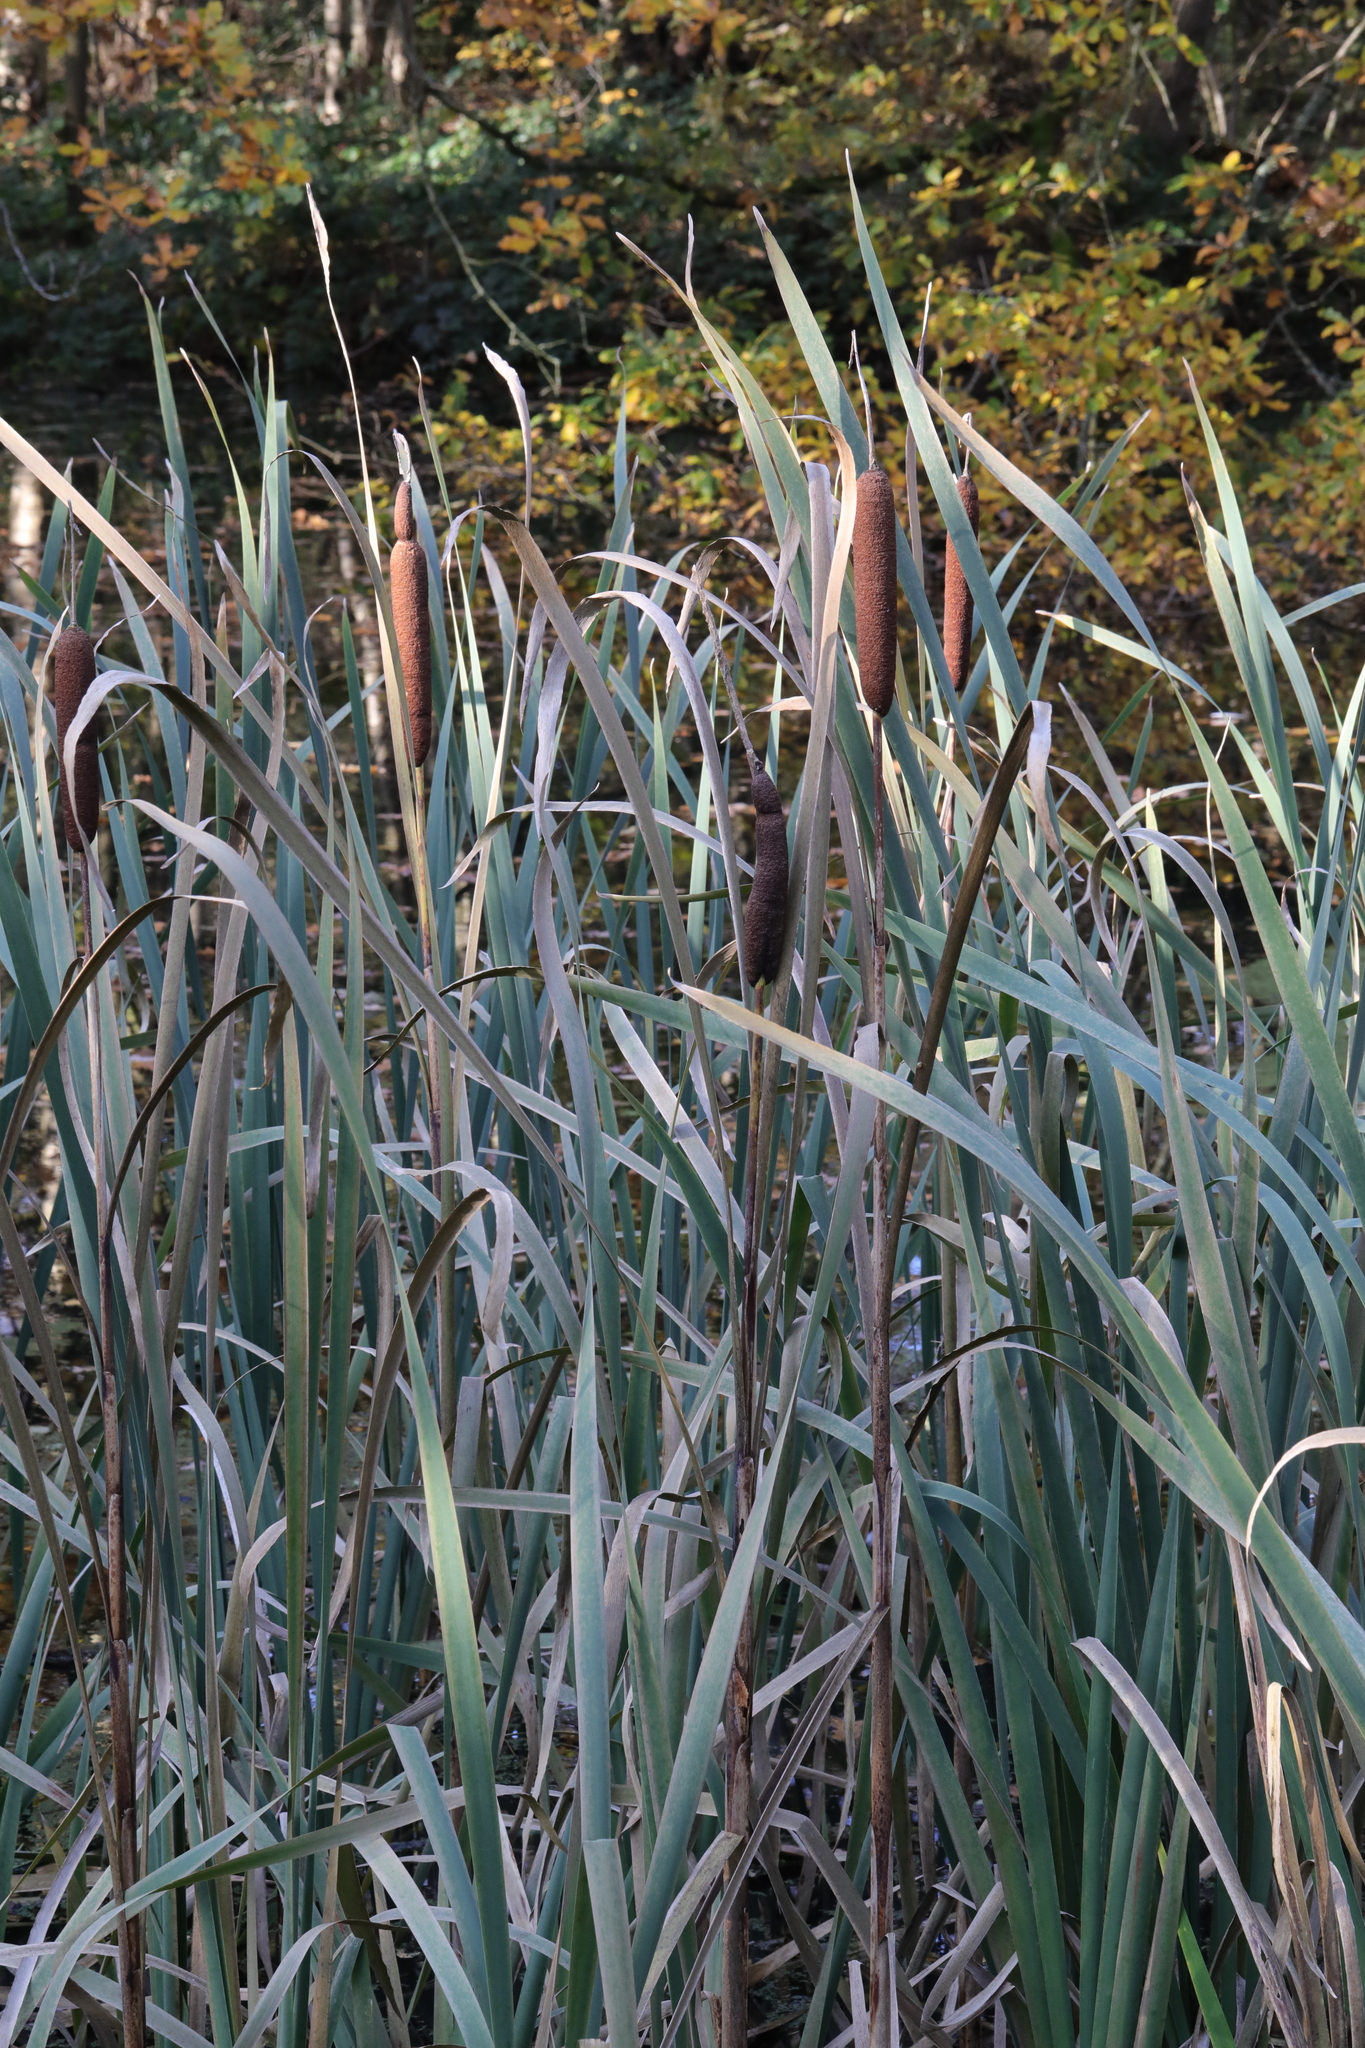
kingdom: Plantae
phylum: Tracheophyta
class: Liliopsida
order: Poales
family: Typhaceae
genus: Typha
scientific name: Typha latifolia
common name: Broadleaf cattail
